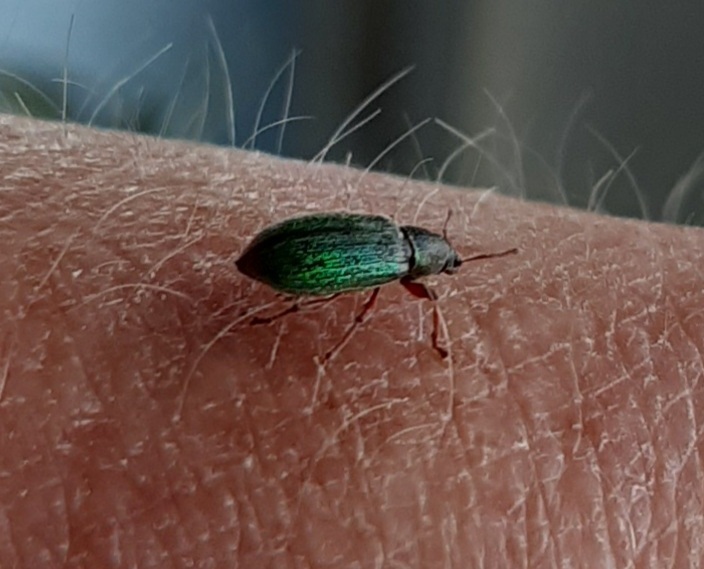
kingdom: Animalia
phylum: Arthropoda
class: Insecta
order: Coleoptera
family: Curculionidae
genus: Polydrusus
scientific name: Polydrusus viridinitens
